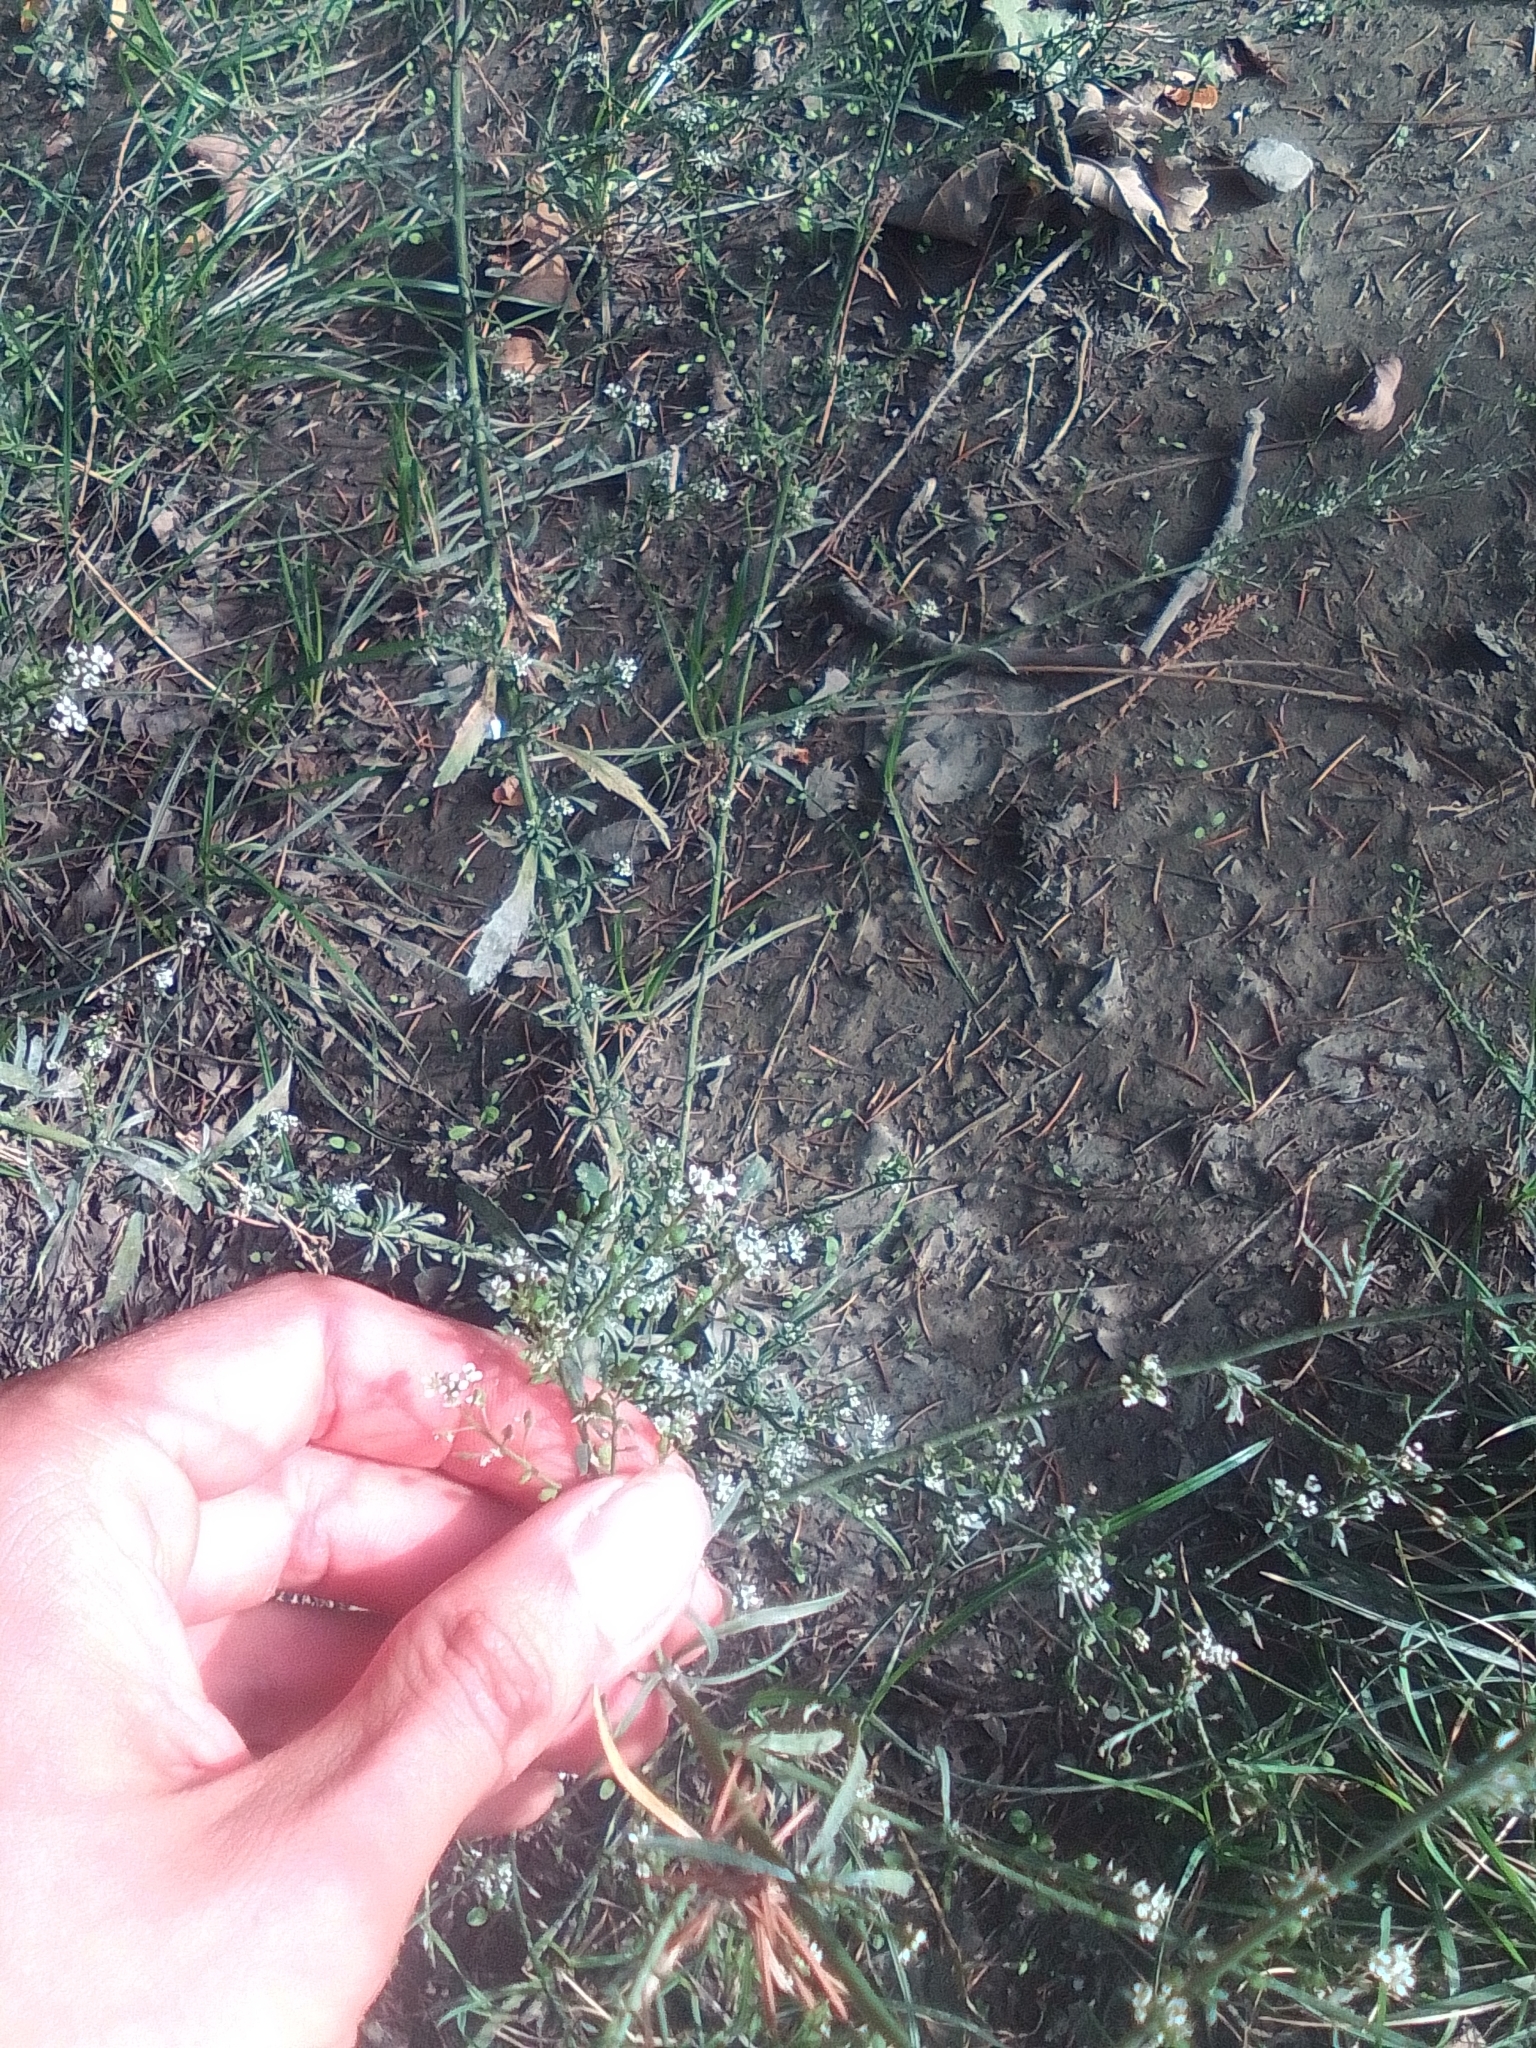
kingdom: Plantae
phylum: Tracheophyta
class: Magnoliopsida
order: Brassicales
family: Brassicaceae
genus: Lepidium
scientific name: Lepidium graminifolium
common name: Tall pepperwort
